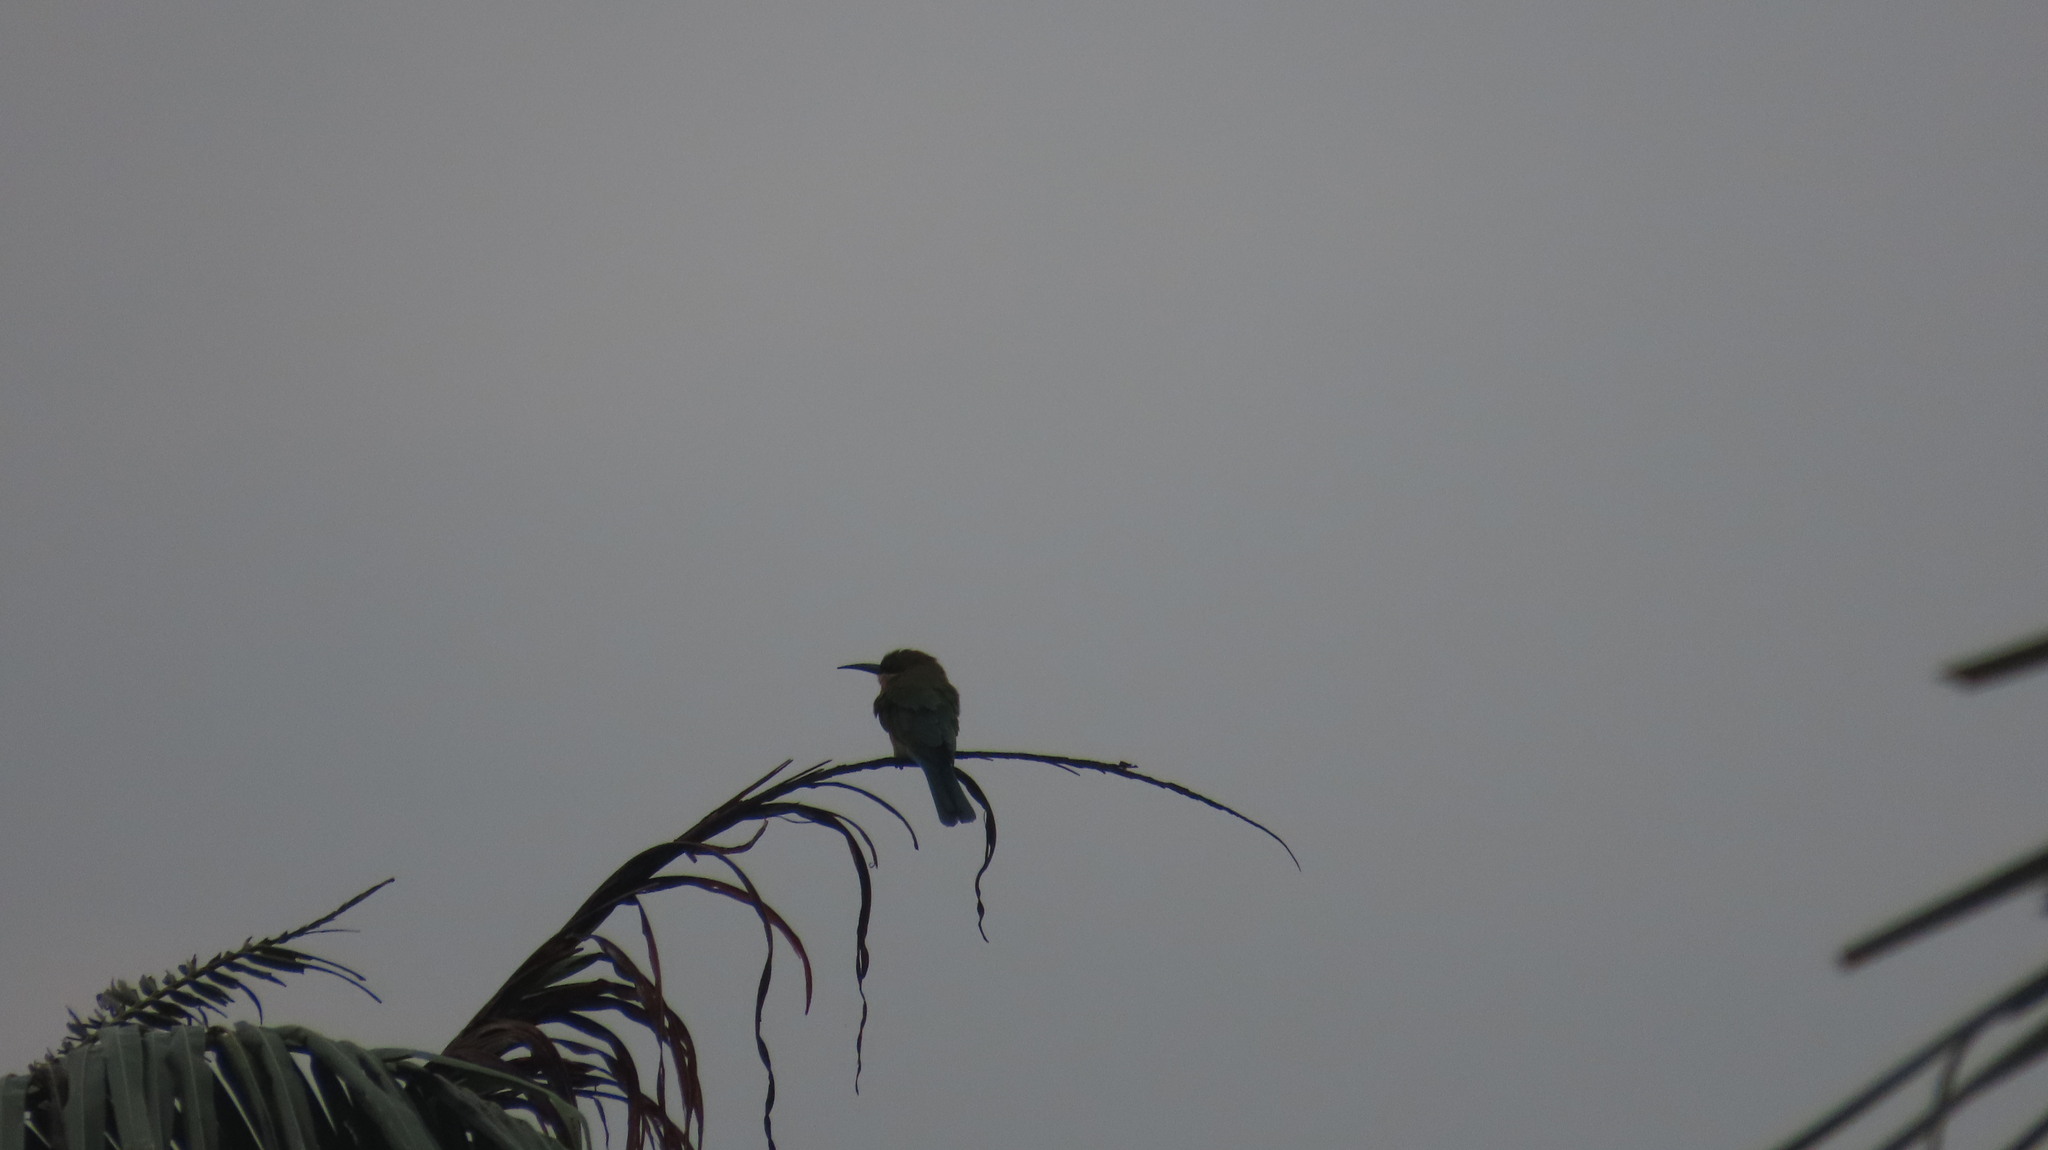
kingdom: Animalia
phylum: Chordata
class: Aves
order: Coraciiformes
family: Meropidae
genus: Merops
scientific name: Merops philippinus
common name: Blue-tailed bee-eater
